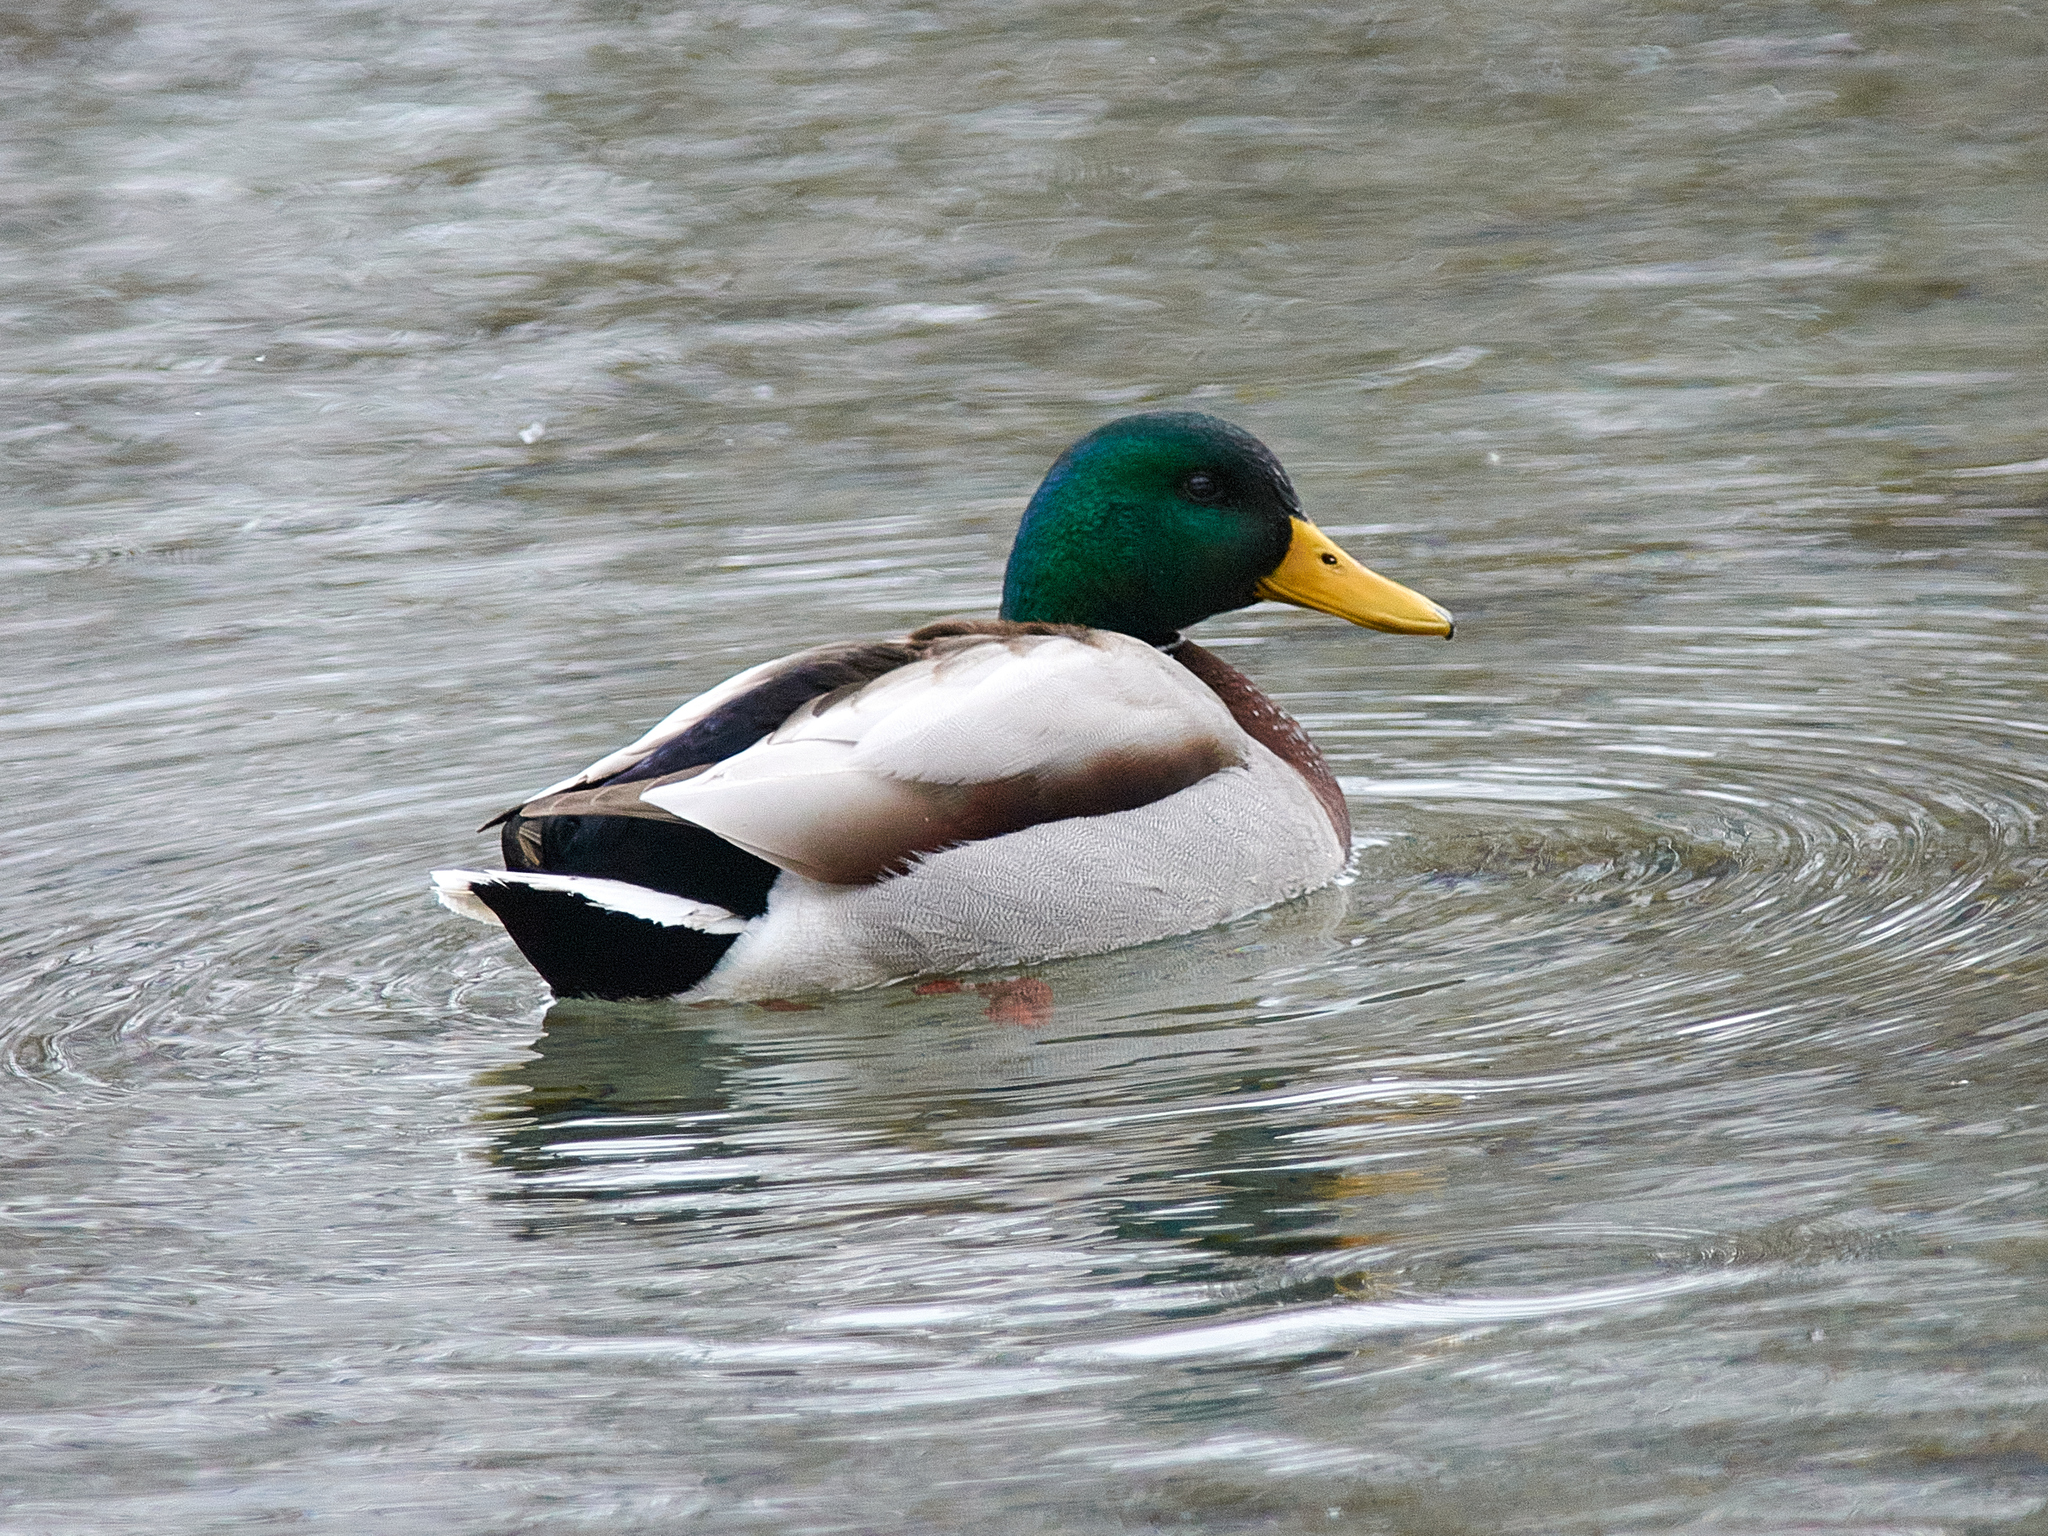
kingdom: Animalia
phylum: Chordata
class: Aves
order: Anseriformes
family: Anatidae
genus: Anas
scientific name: Anas platyrhynchos
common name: Mallard
